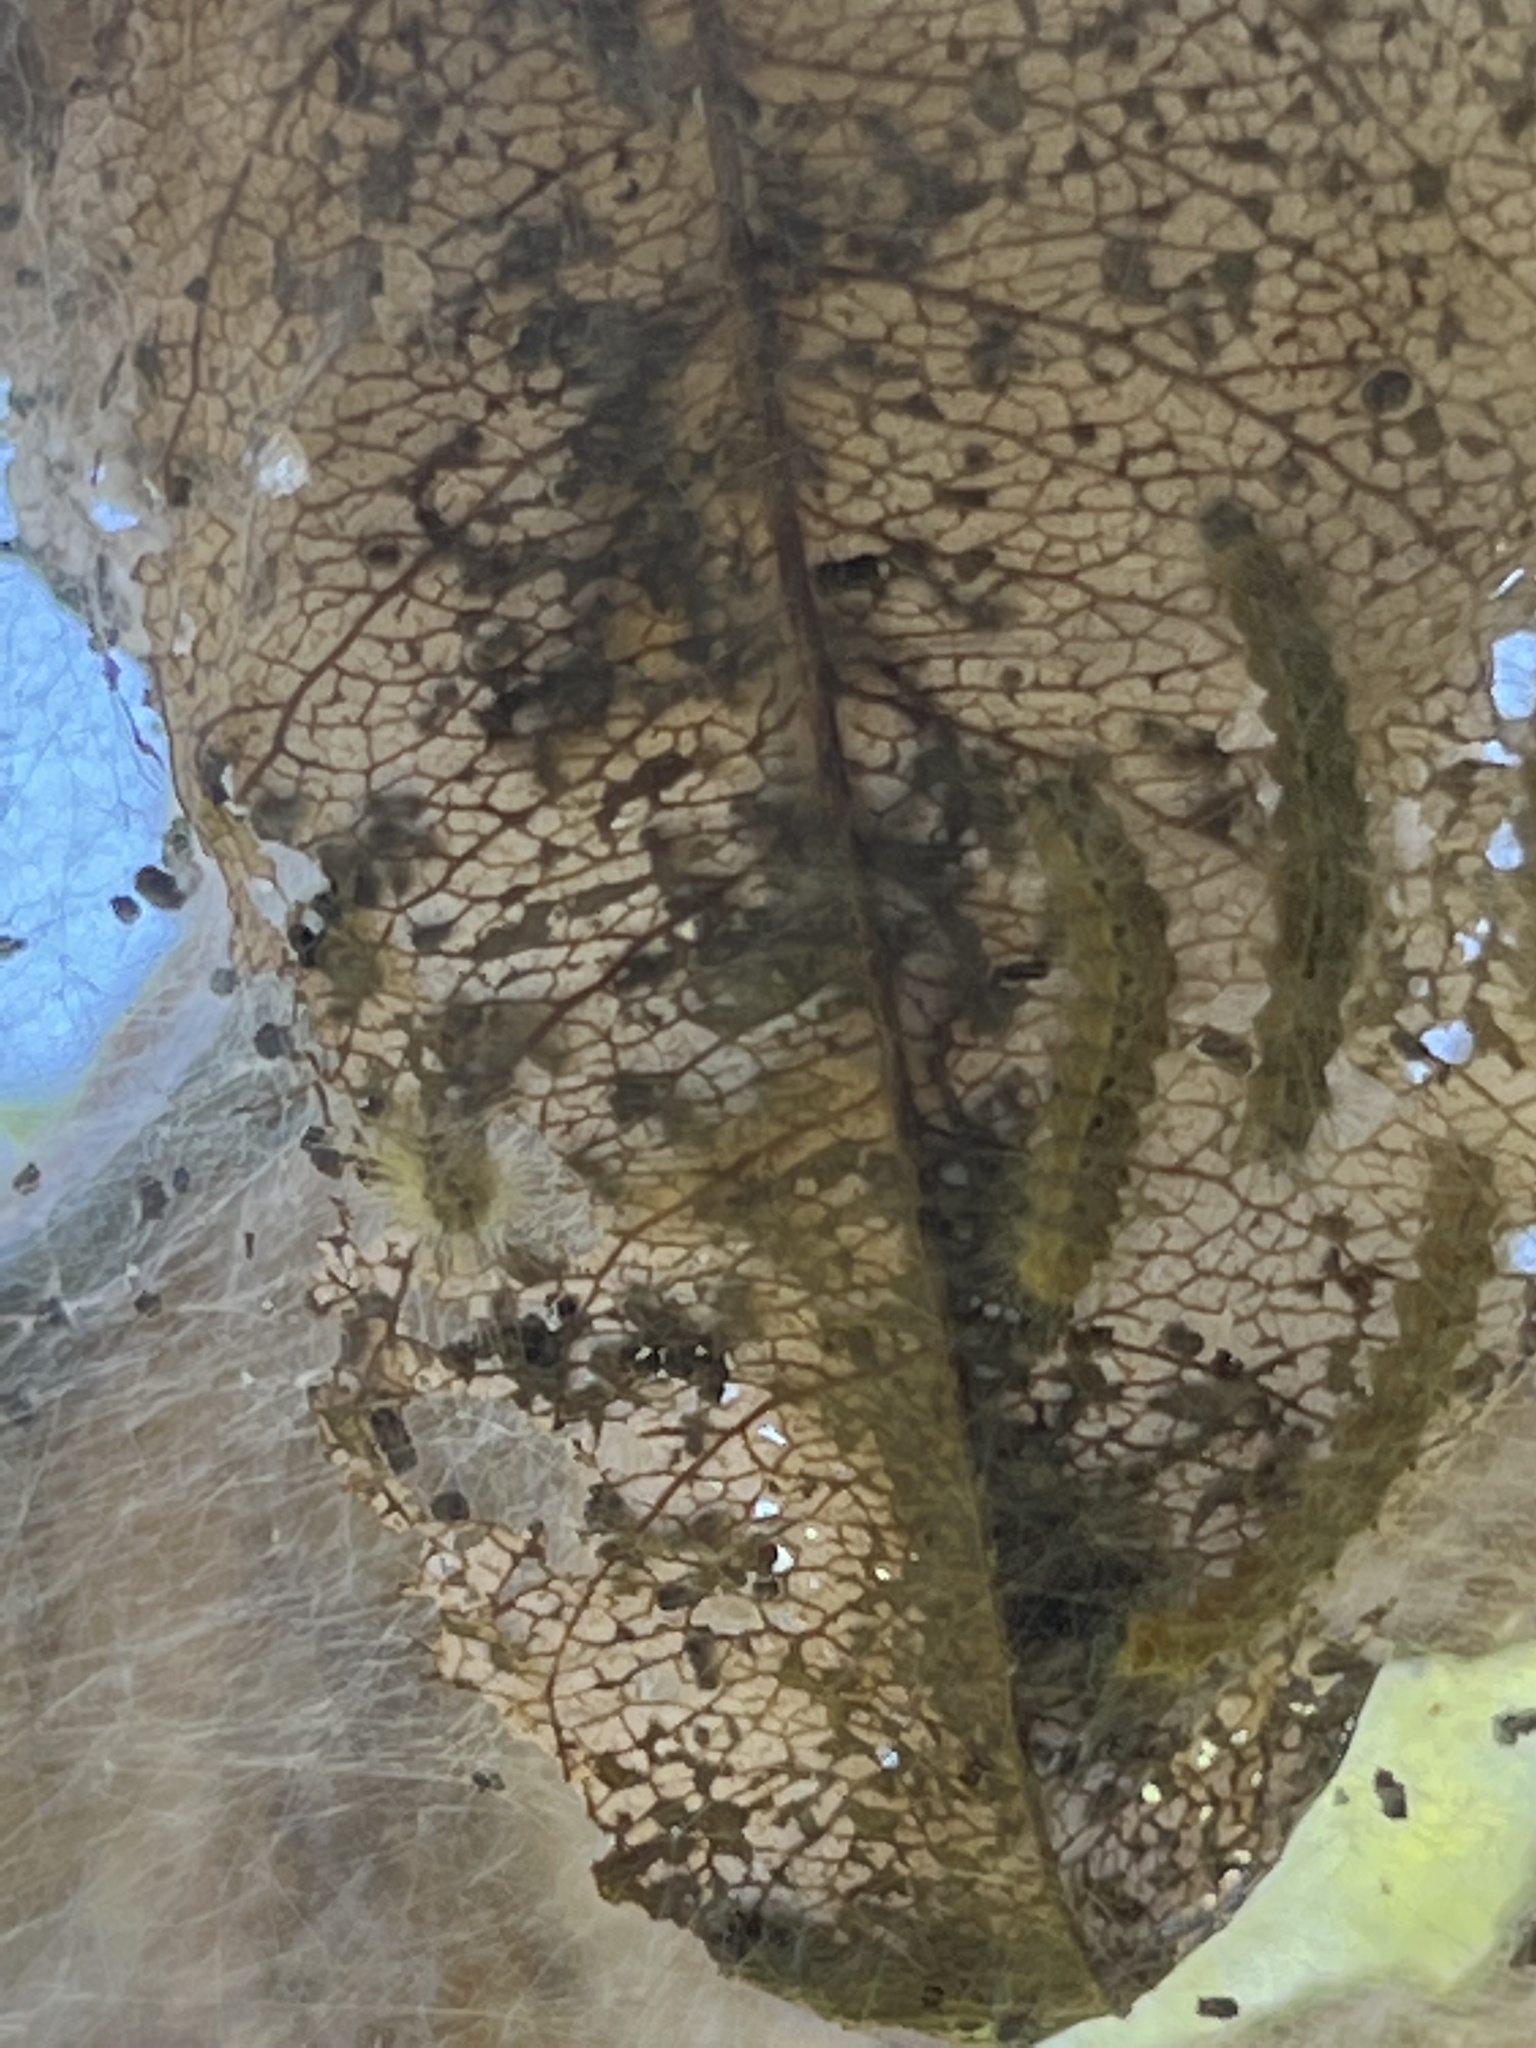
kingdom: Animalia
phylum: Arthropoda
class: Insecta
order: Lepidoptera
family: Erebidae
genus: Hyphantria
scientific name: Hyphantria cunea
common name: American white moth
